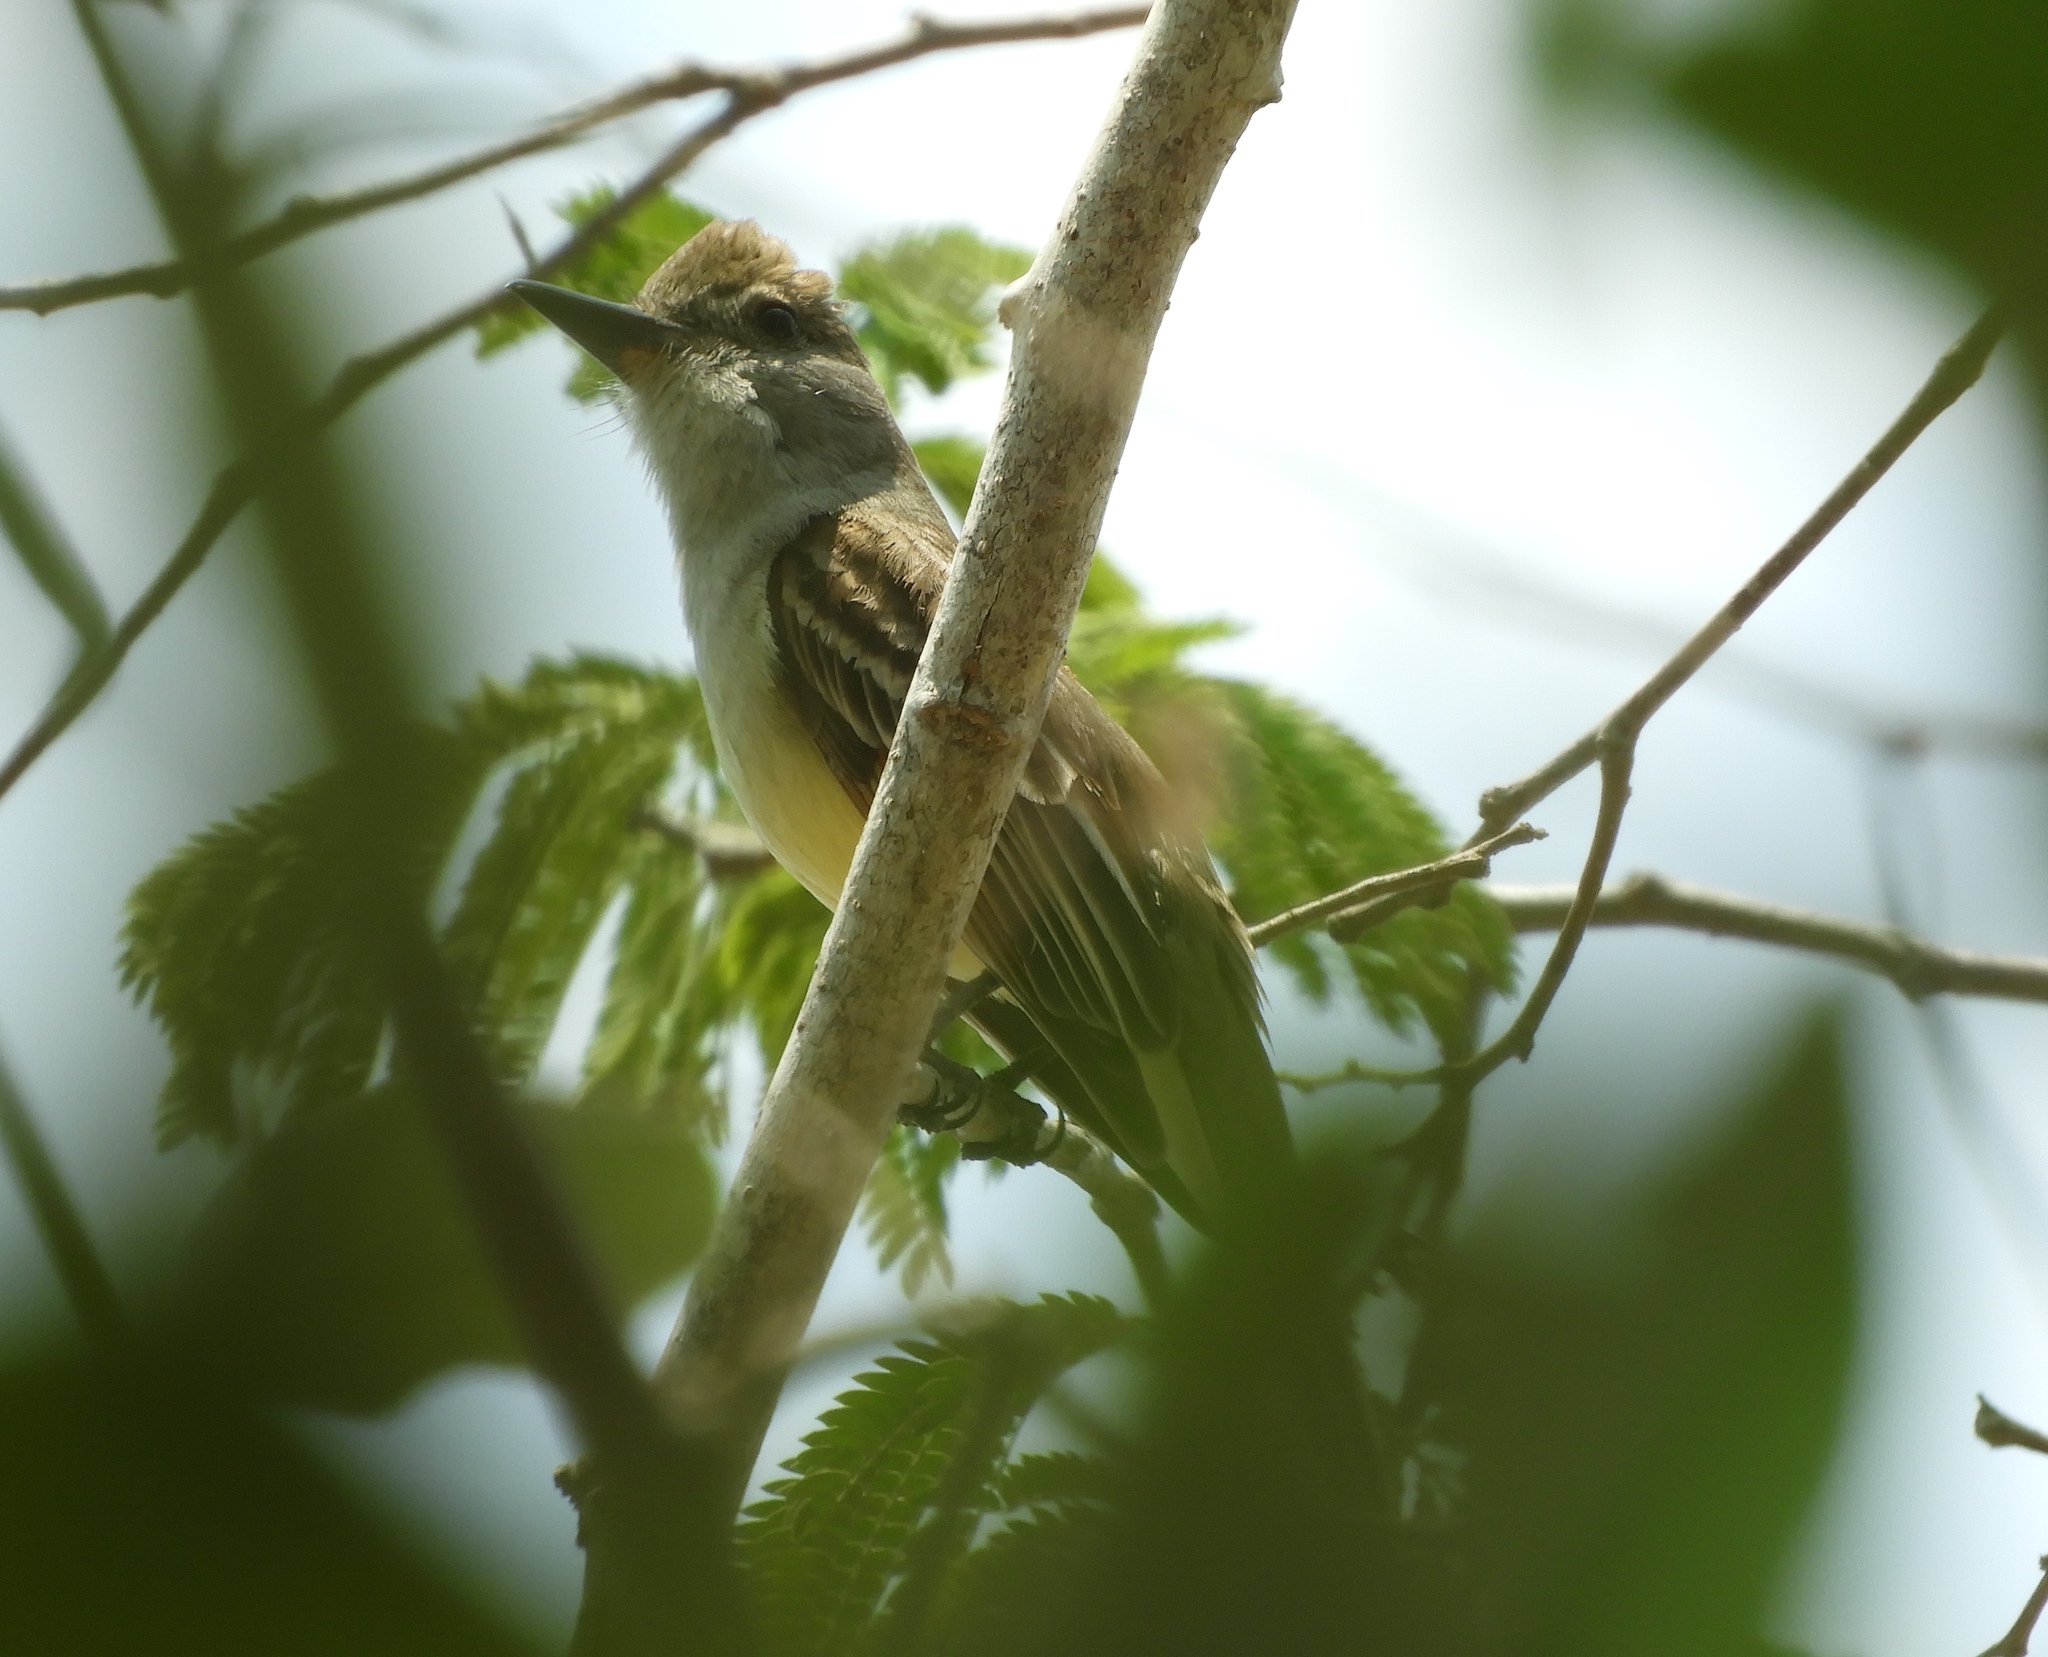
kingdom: Animalia
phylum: Chordata
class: Aves
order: Passeriformes
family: Tyrannidae
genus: Myiarchus
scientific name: Myiarchus
